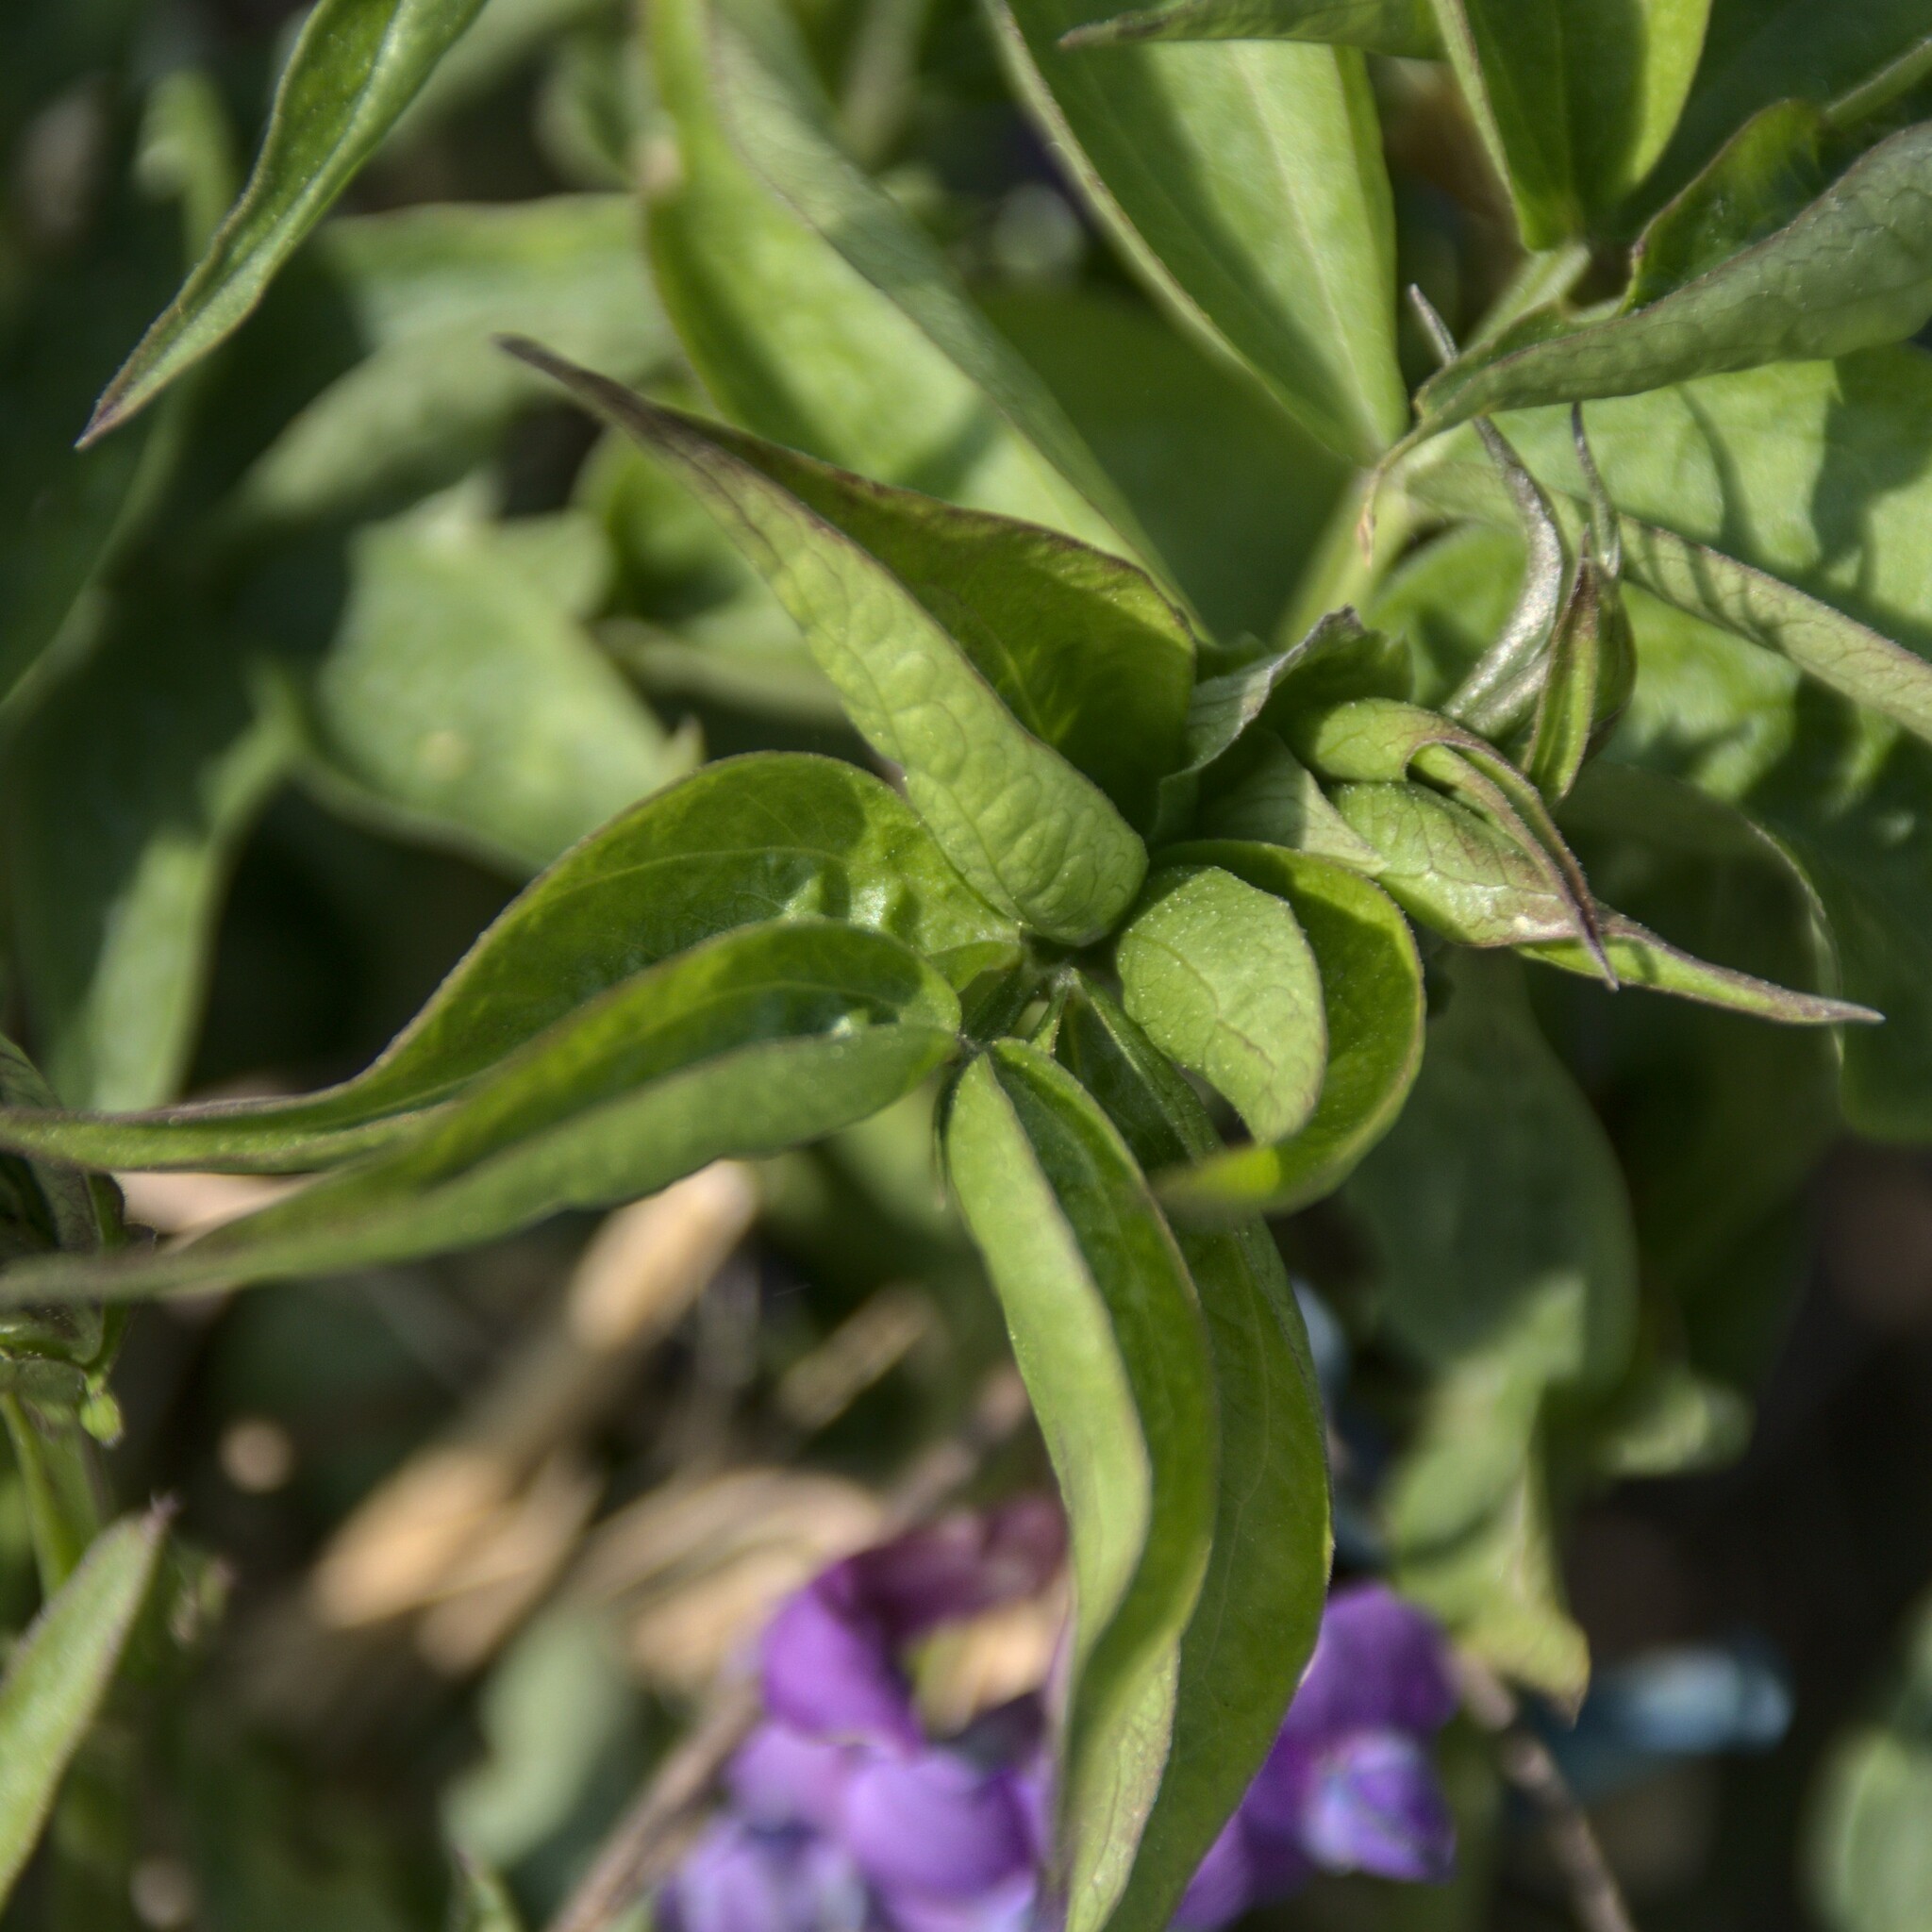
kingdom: Plantae
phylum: Tracheophyta
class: Magnoliopsida
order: Fabales
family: Fabaceae
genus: Lathyrus
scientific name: Lathyrus vernus
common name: Spring pea
